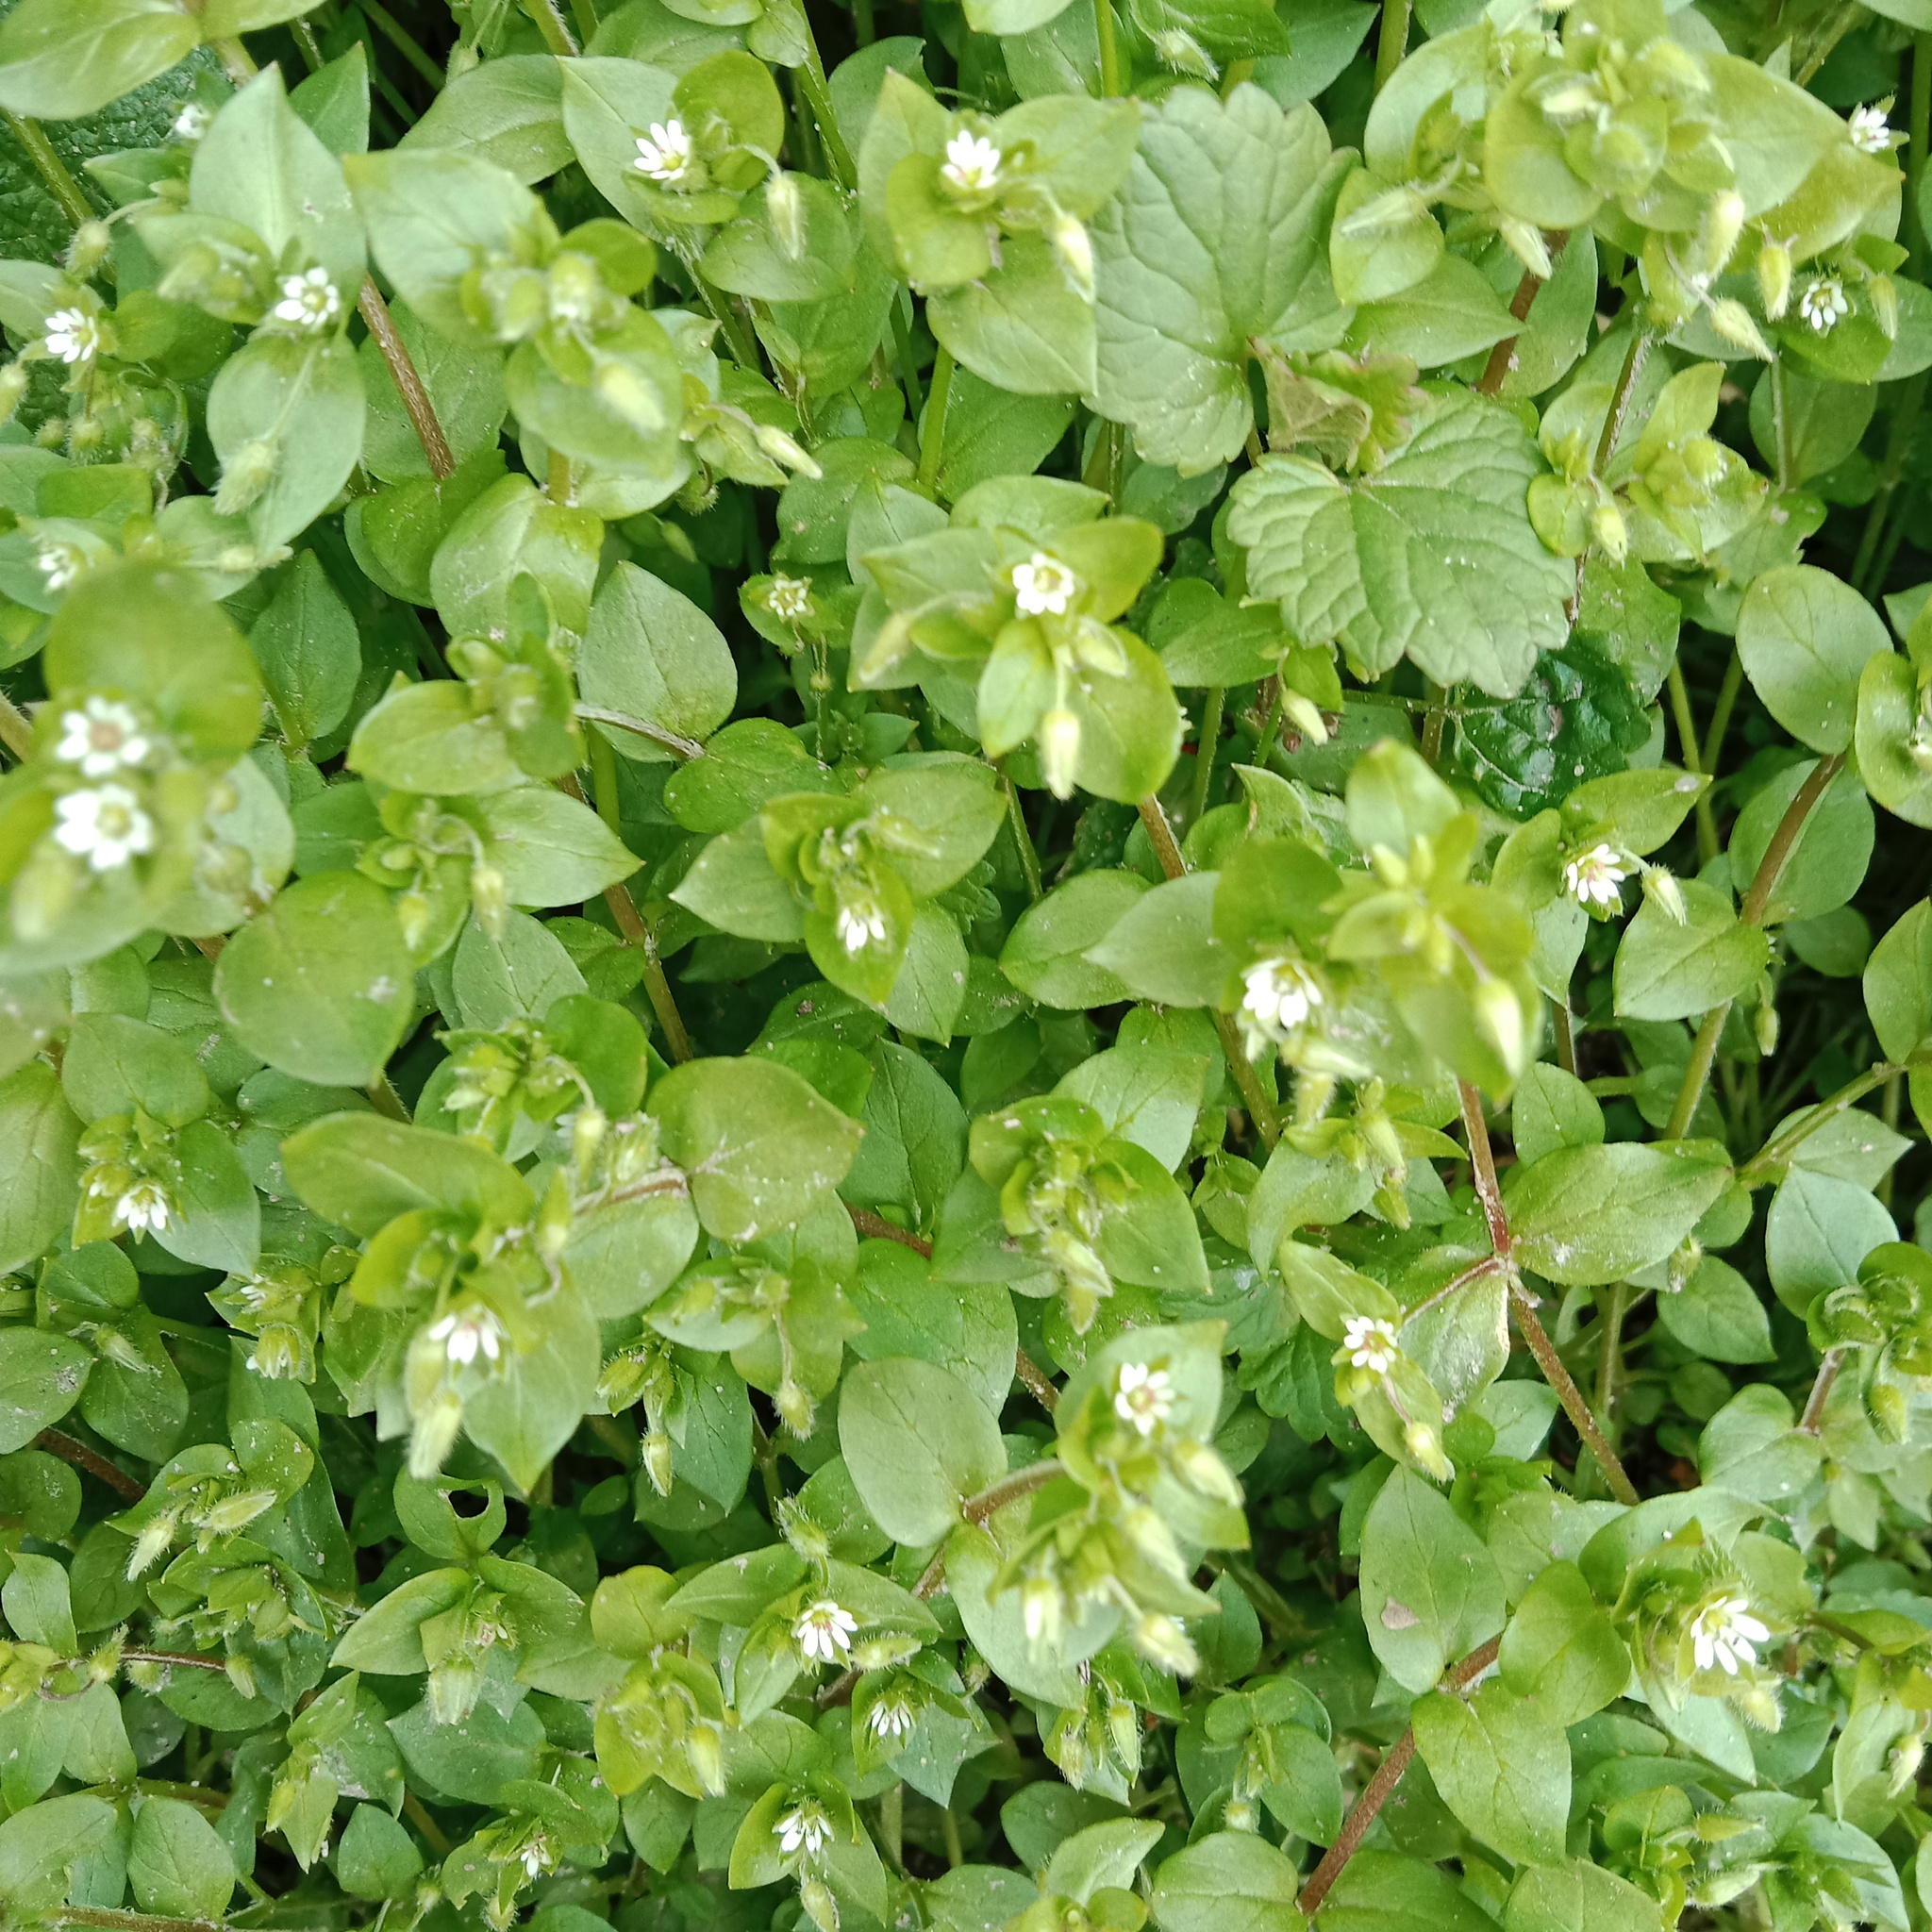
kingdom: Plantae
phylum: Tracheophyta
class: Magnoliopsida
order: Caryophyllales
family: Caryophyllaceae
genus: Stellaria
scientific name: Stellaria media
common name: Common chickweed
